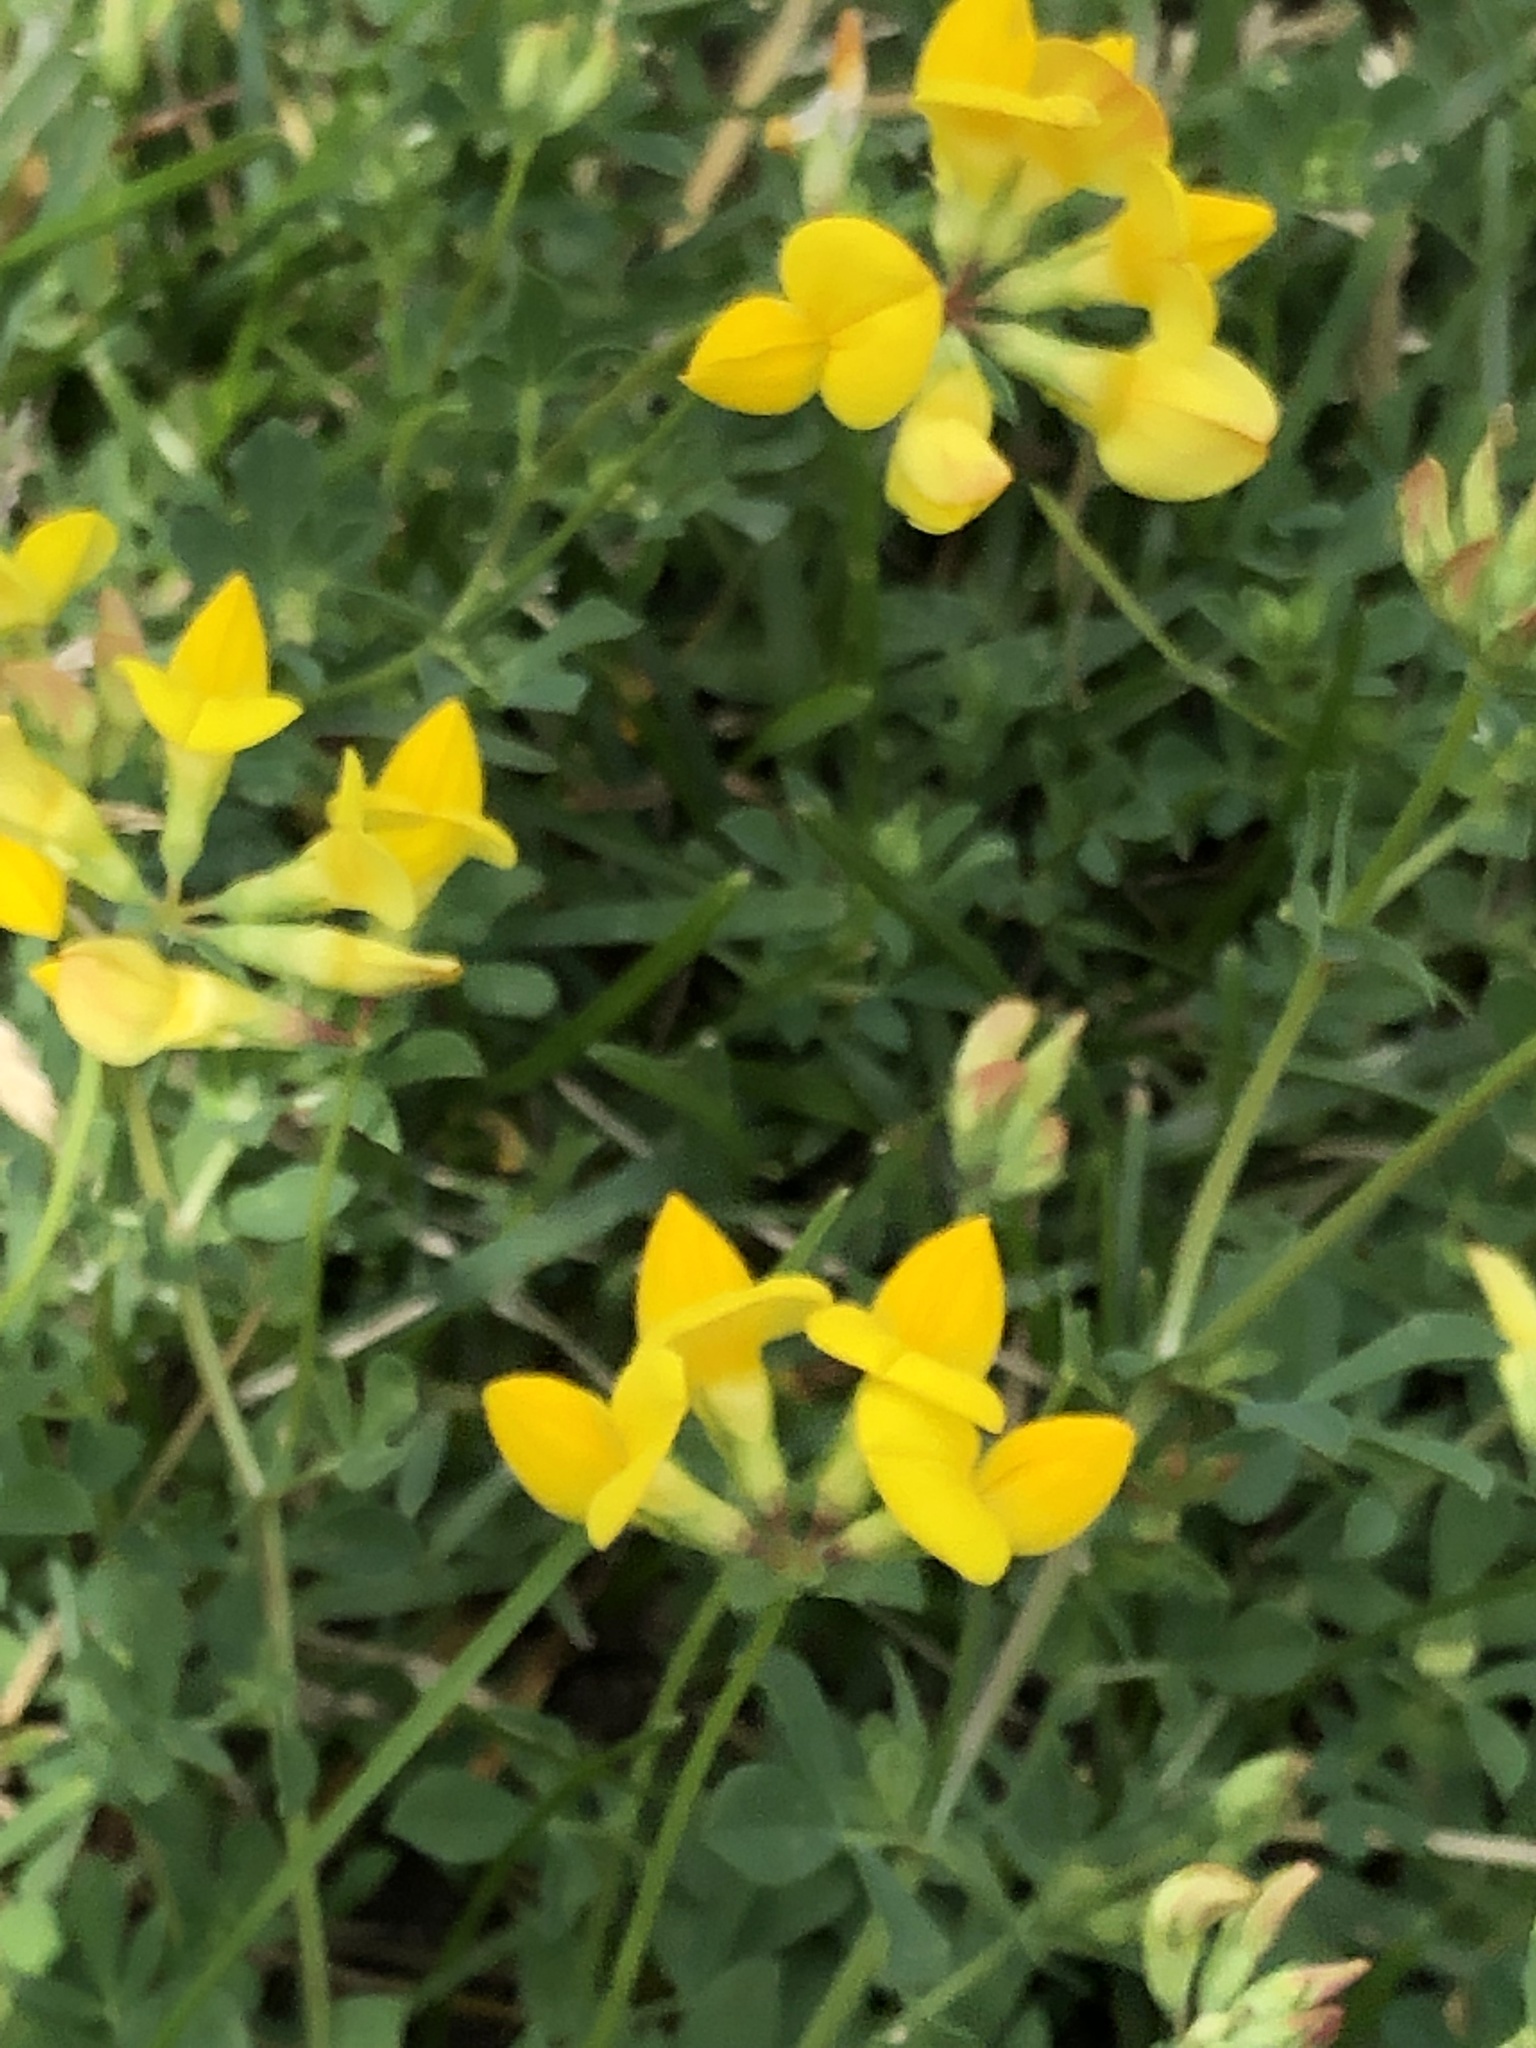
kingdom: Plantae
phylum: Tracheophyta
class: Magnoliopsida
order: Fabales
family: Fabaceae
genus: Lotus
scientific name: Lotus corniculatus
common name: Common bird's-foot-trefoil
